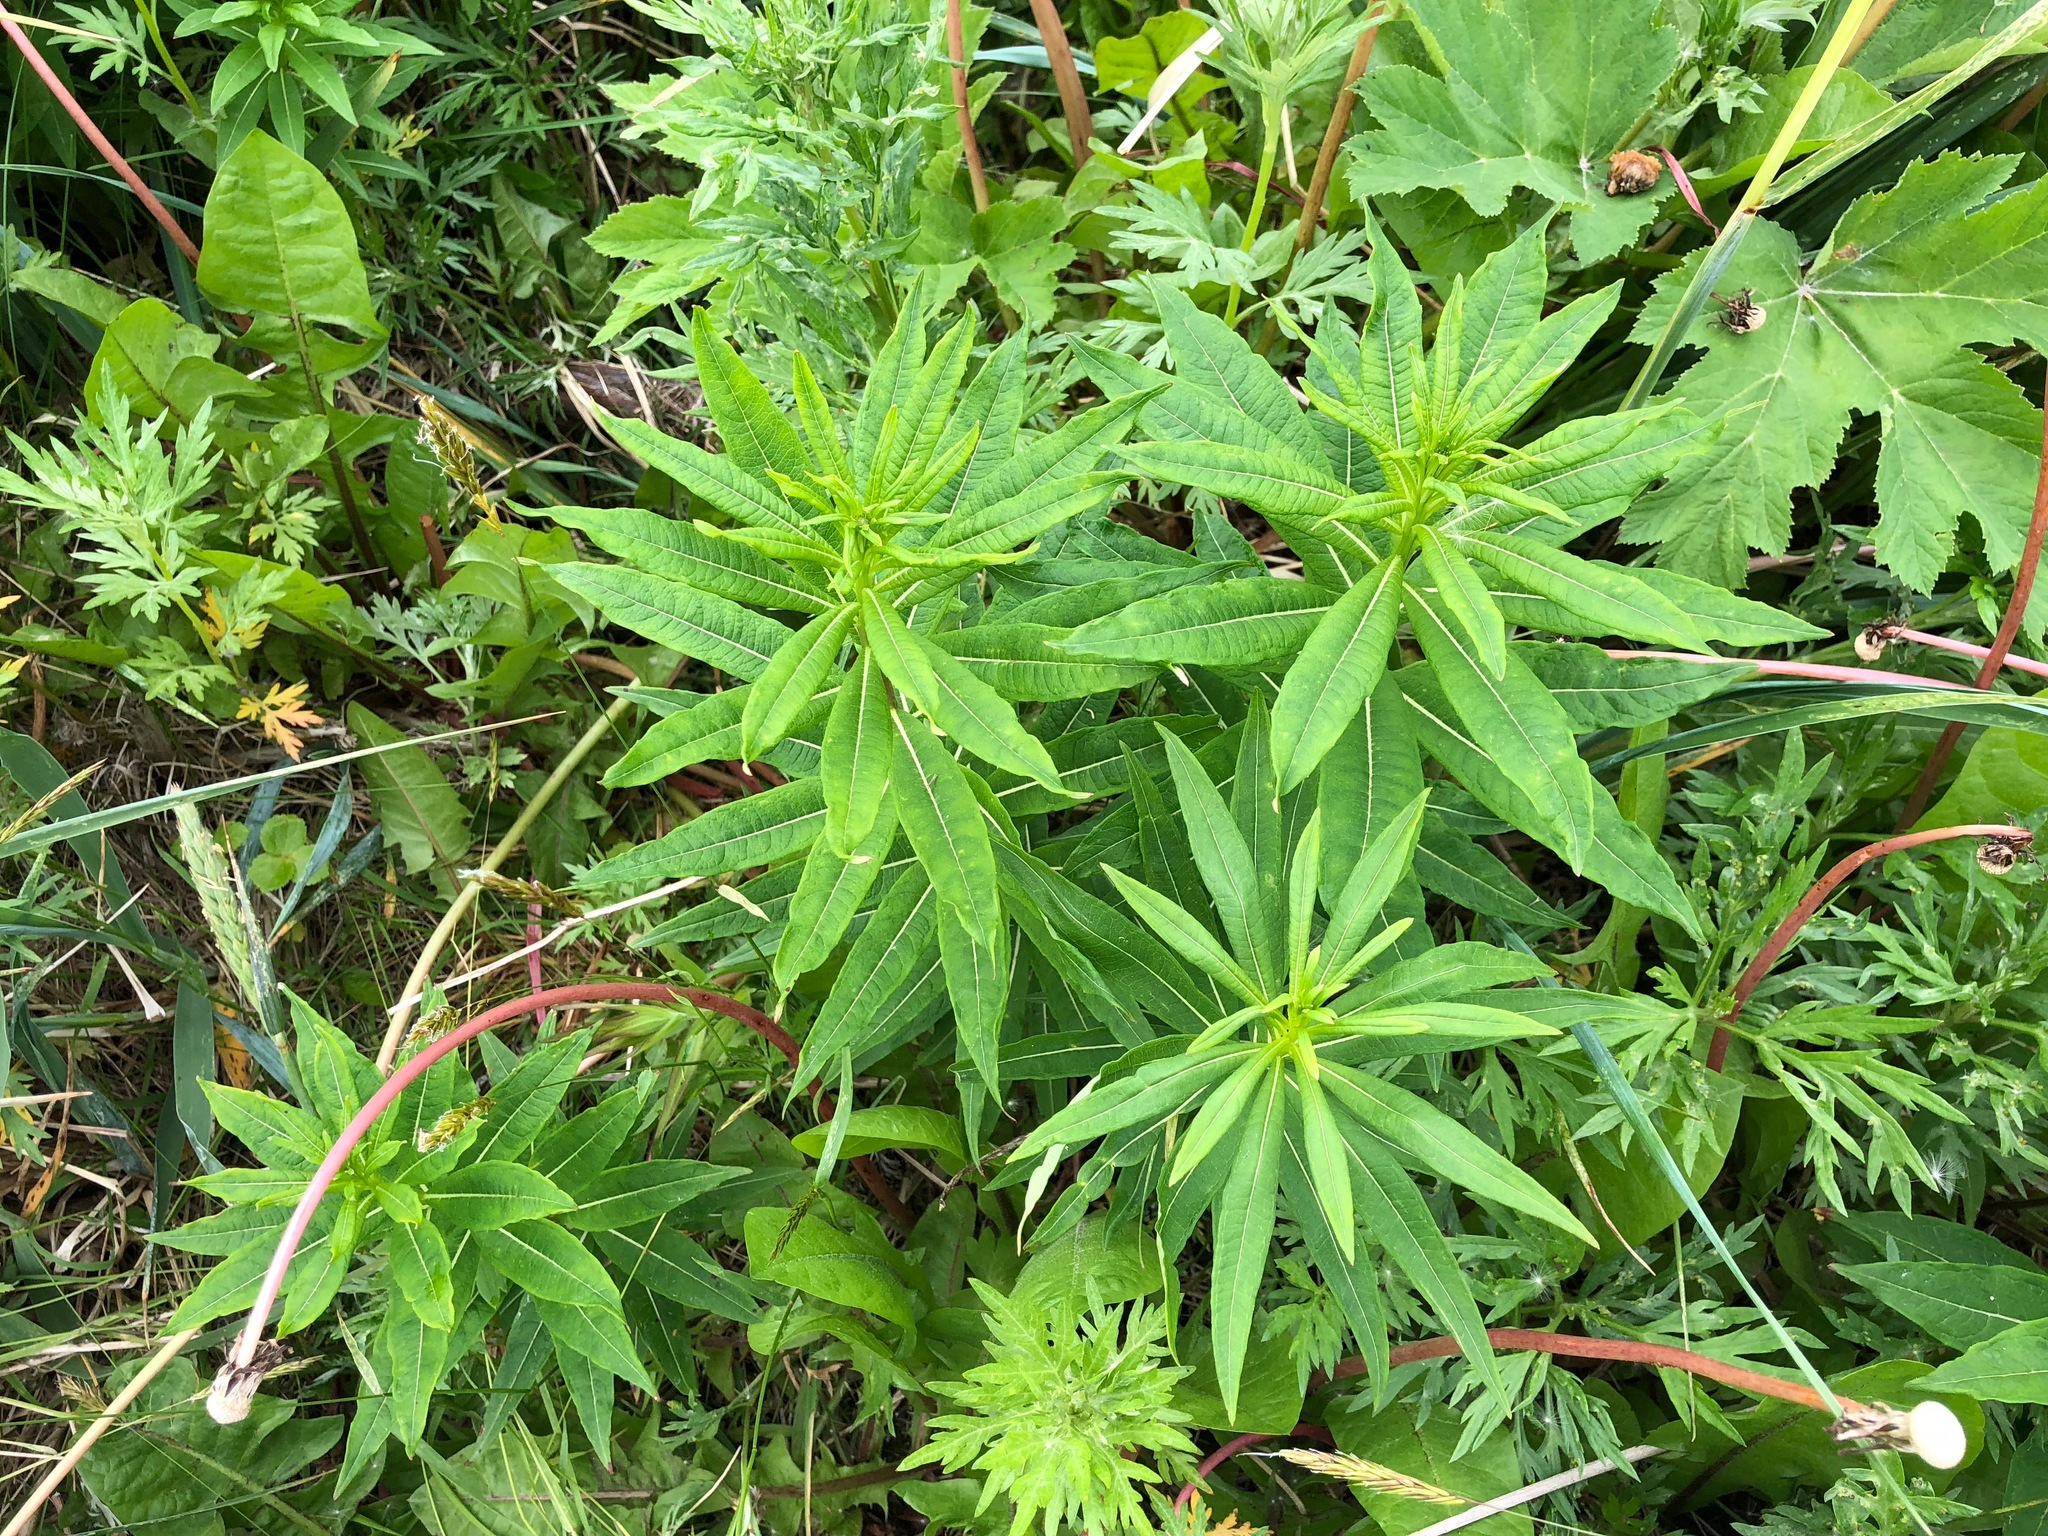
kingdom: Plantae
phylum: Tracheophyta
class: Magnoliopsida
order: Myrtales
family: Onagraceae
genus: Chamaenerion
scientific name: Chamaenerion angustifolium
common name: Fireweed
